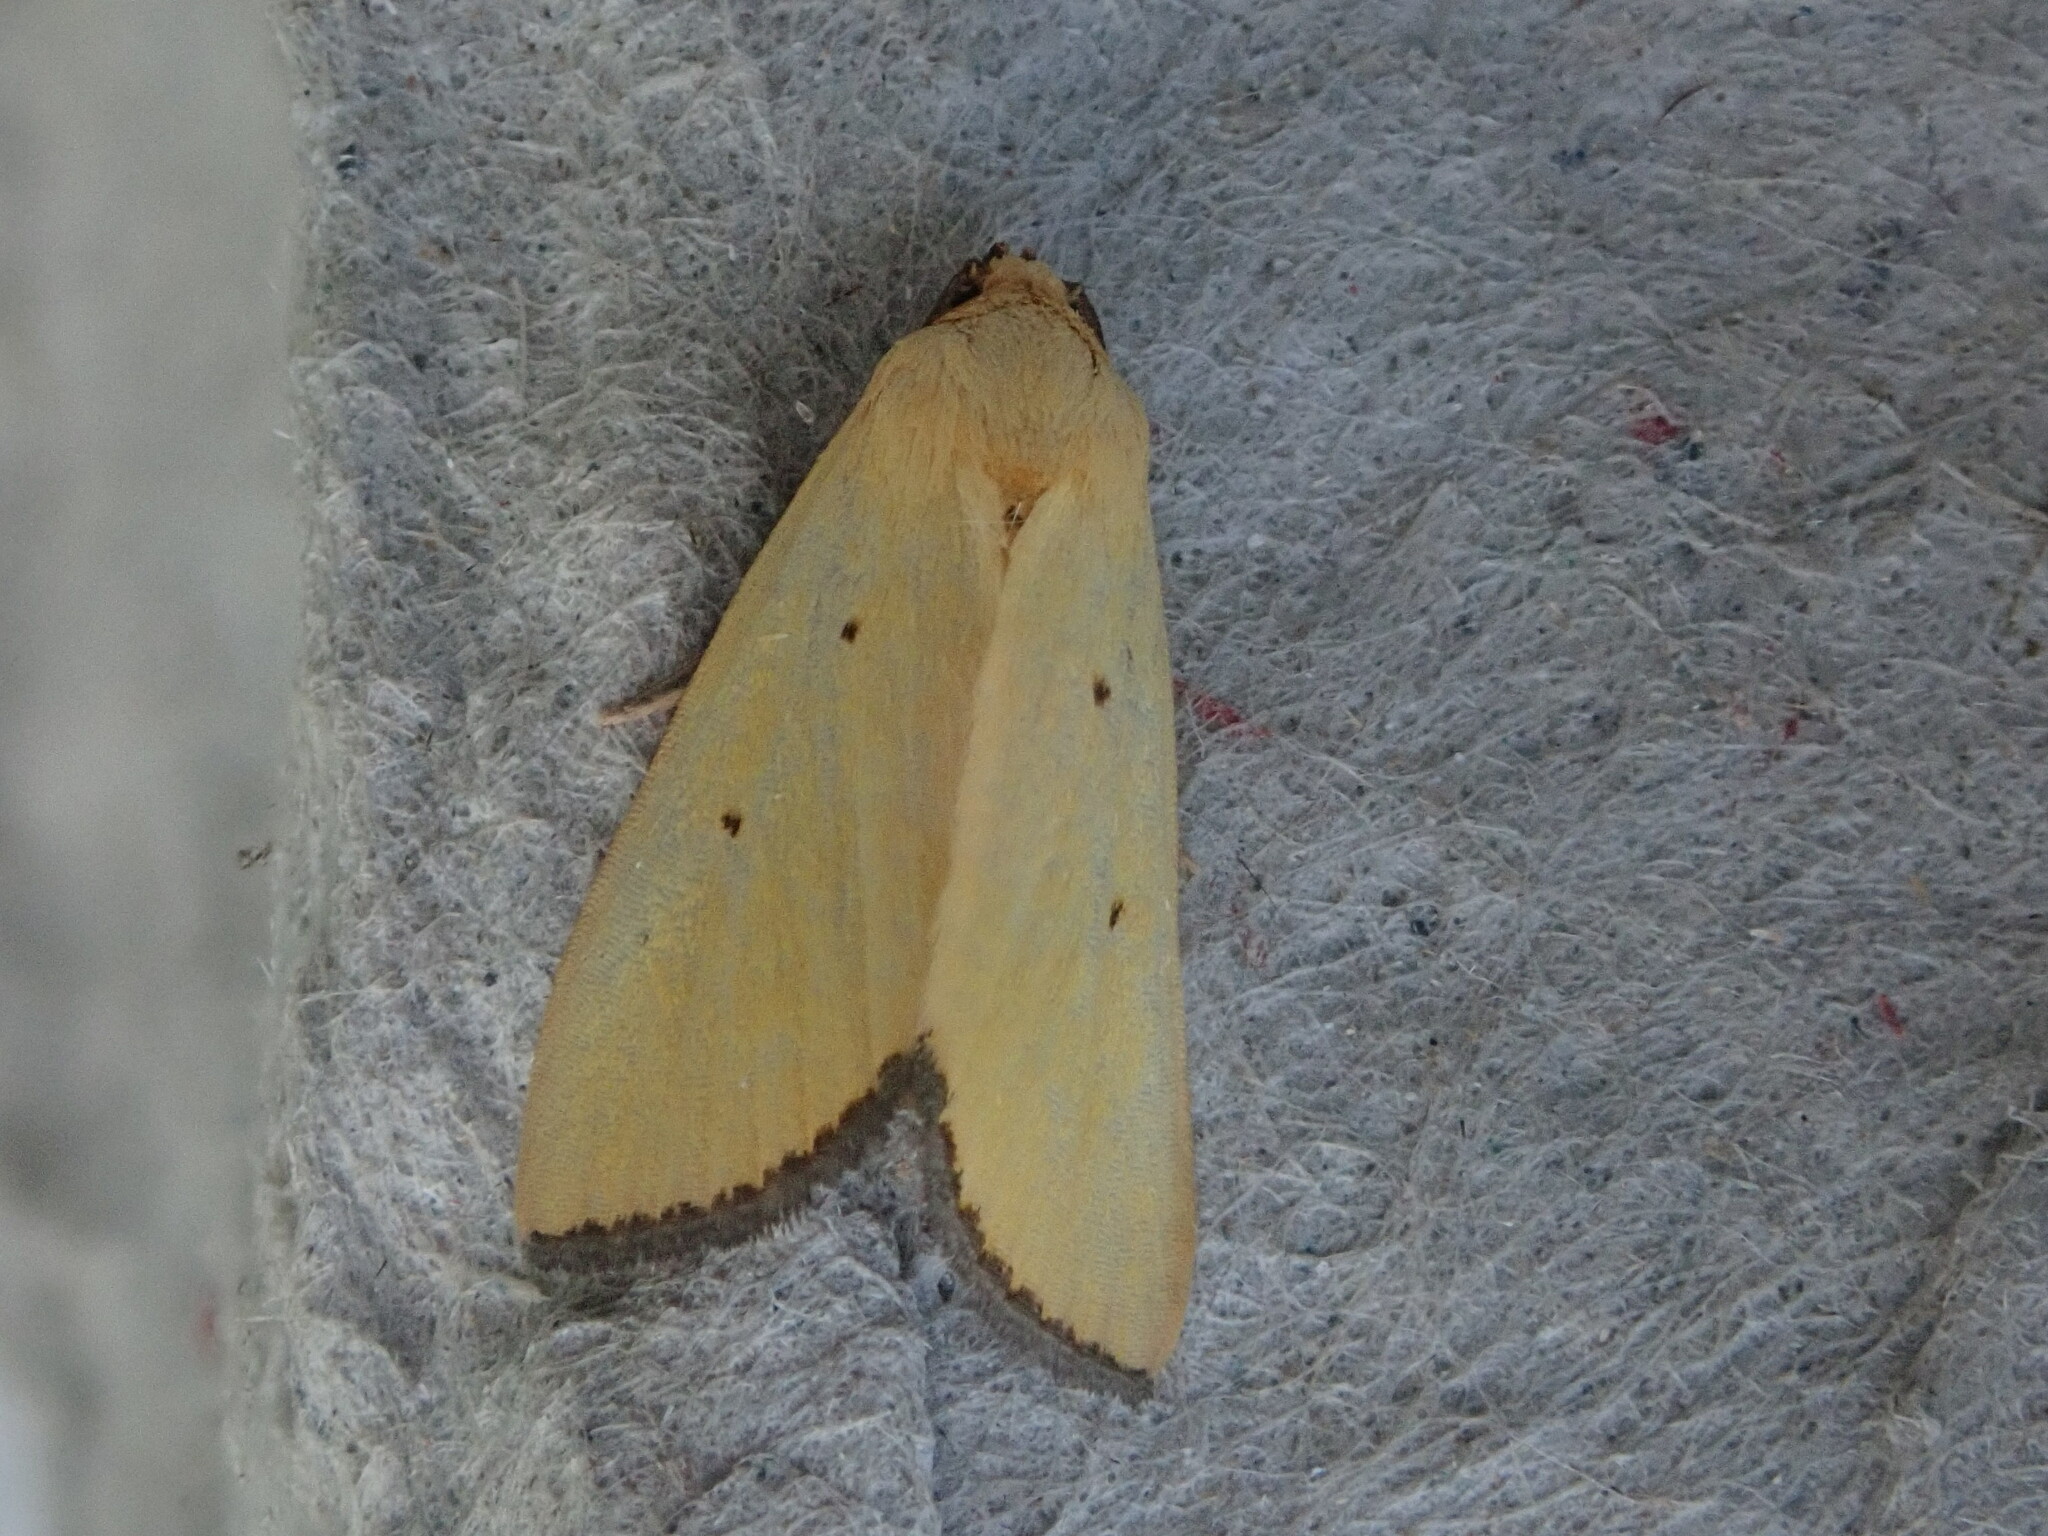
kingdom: Animalia
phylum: Arthropoda
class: Insecta
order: Lepidoptera
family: Noctuidae
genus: Marimatha
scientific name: Marimatha nigrofimbria
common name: Black-bordered lemon moth
